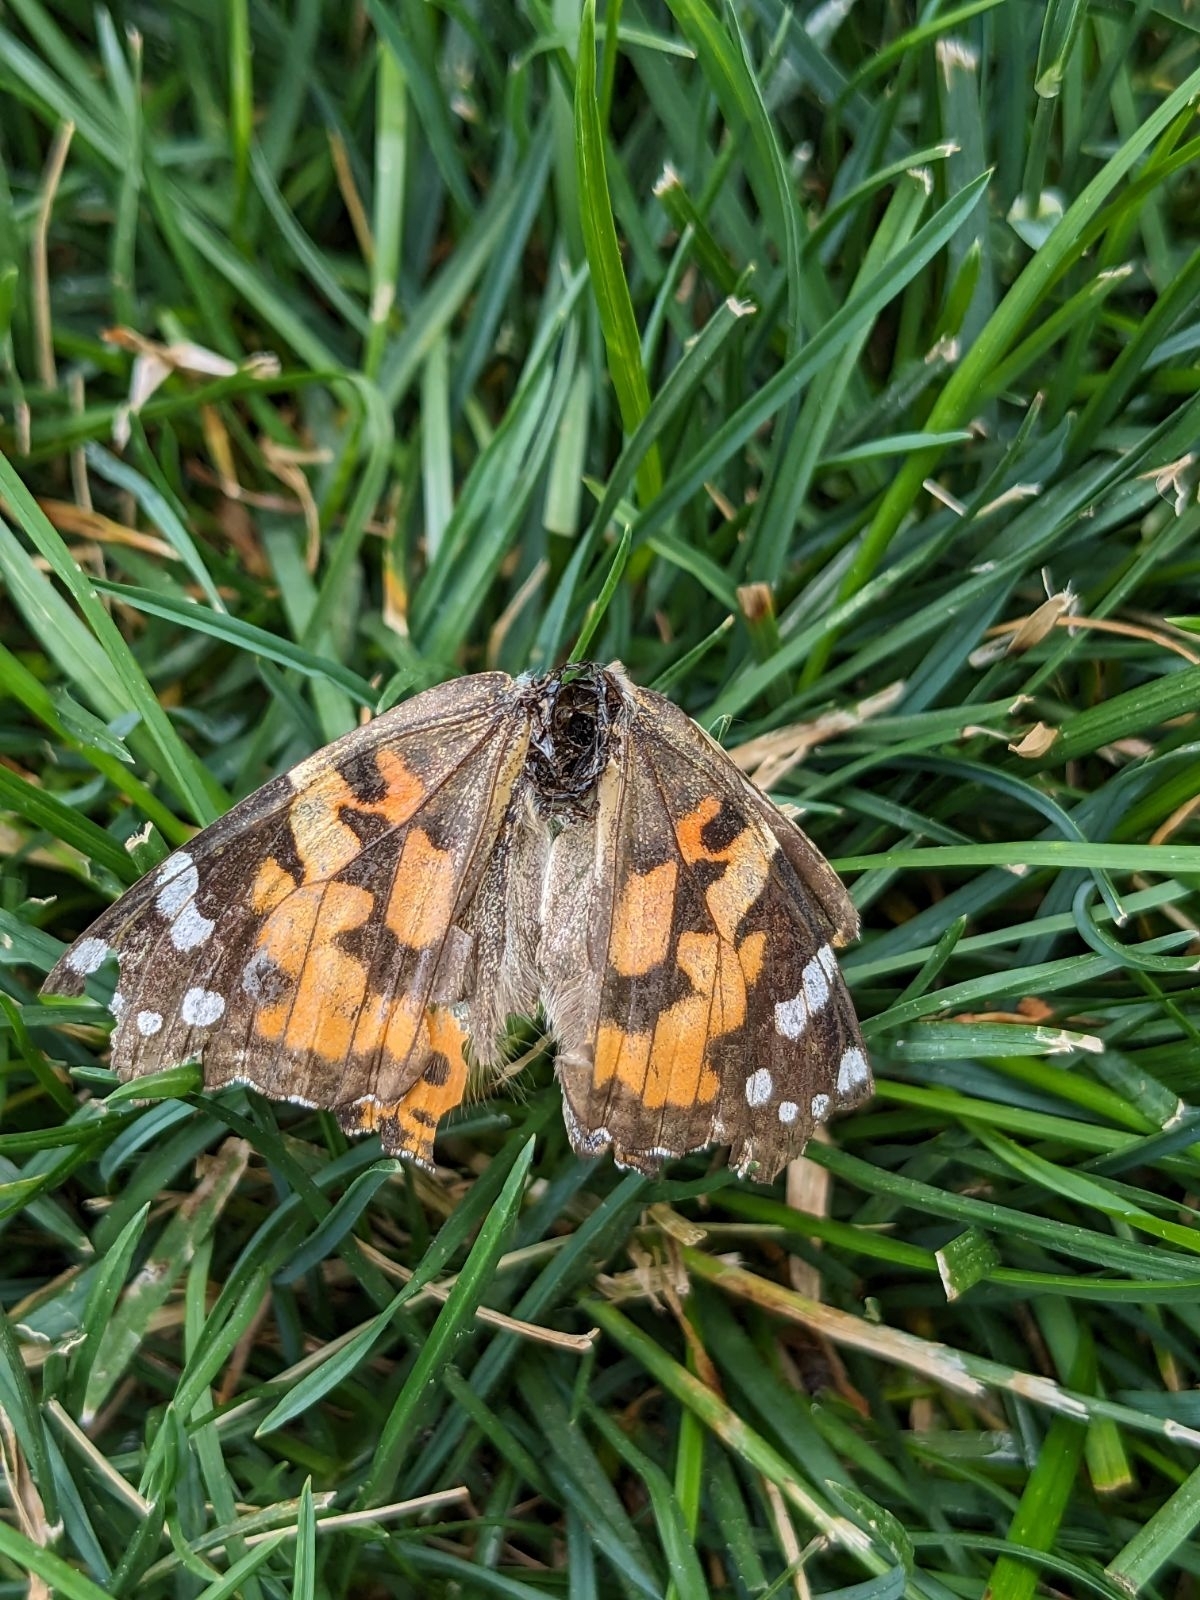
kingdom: Animalia
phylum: Arthropoda
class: Insecta
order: Lepidoptera
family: Nymphalidae
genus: Vanessa
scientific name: Vanessa cardui
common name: Painted lady
